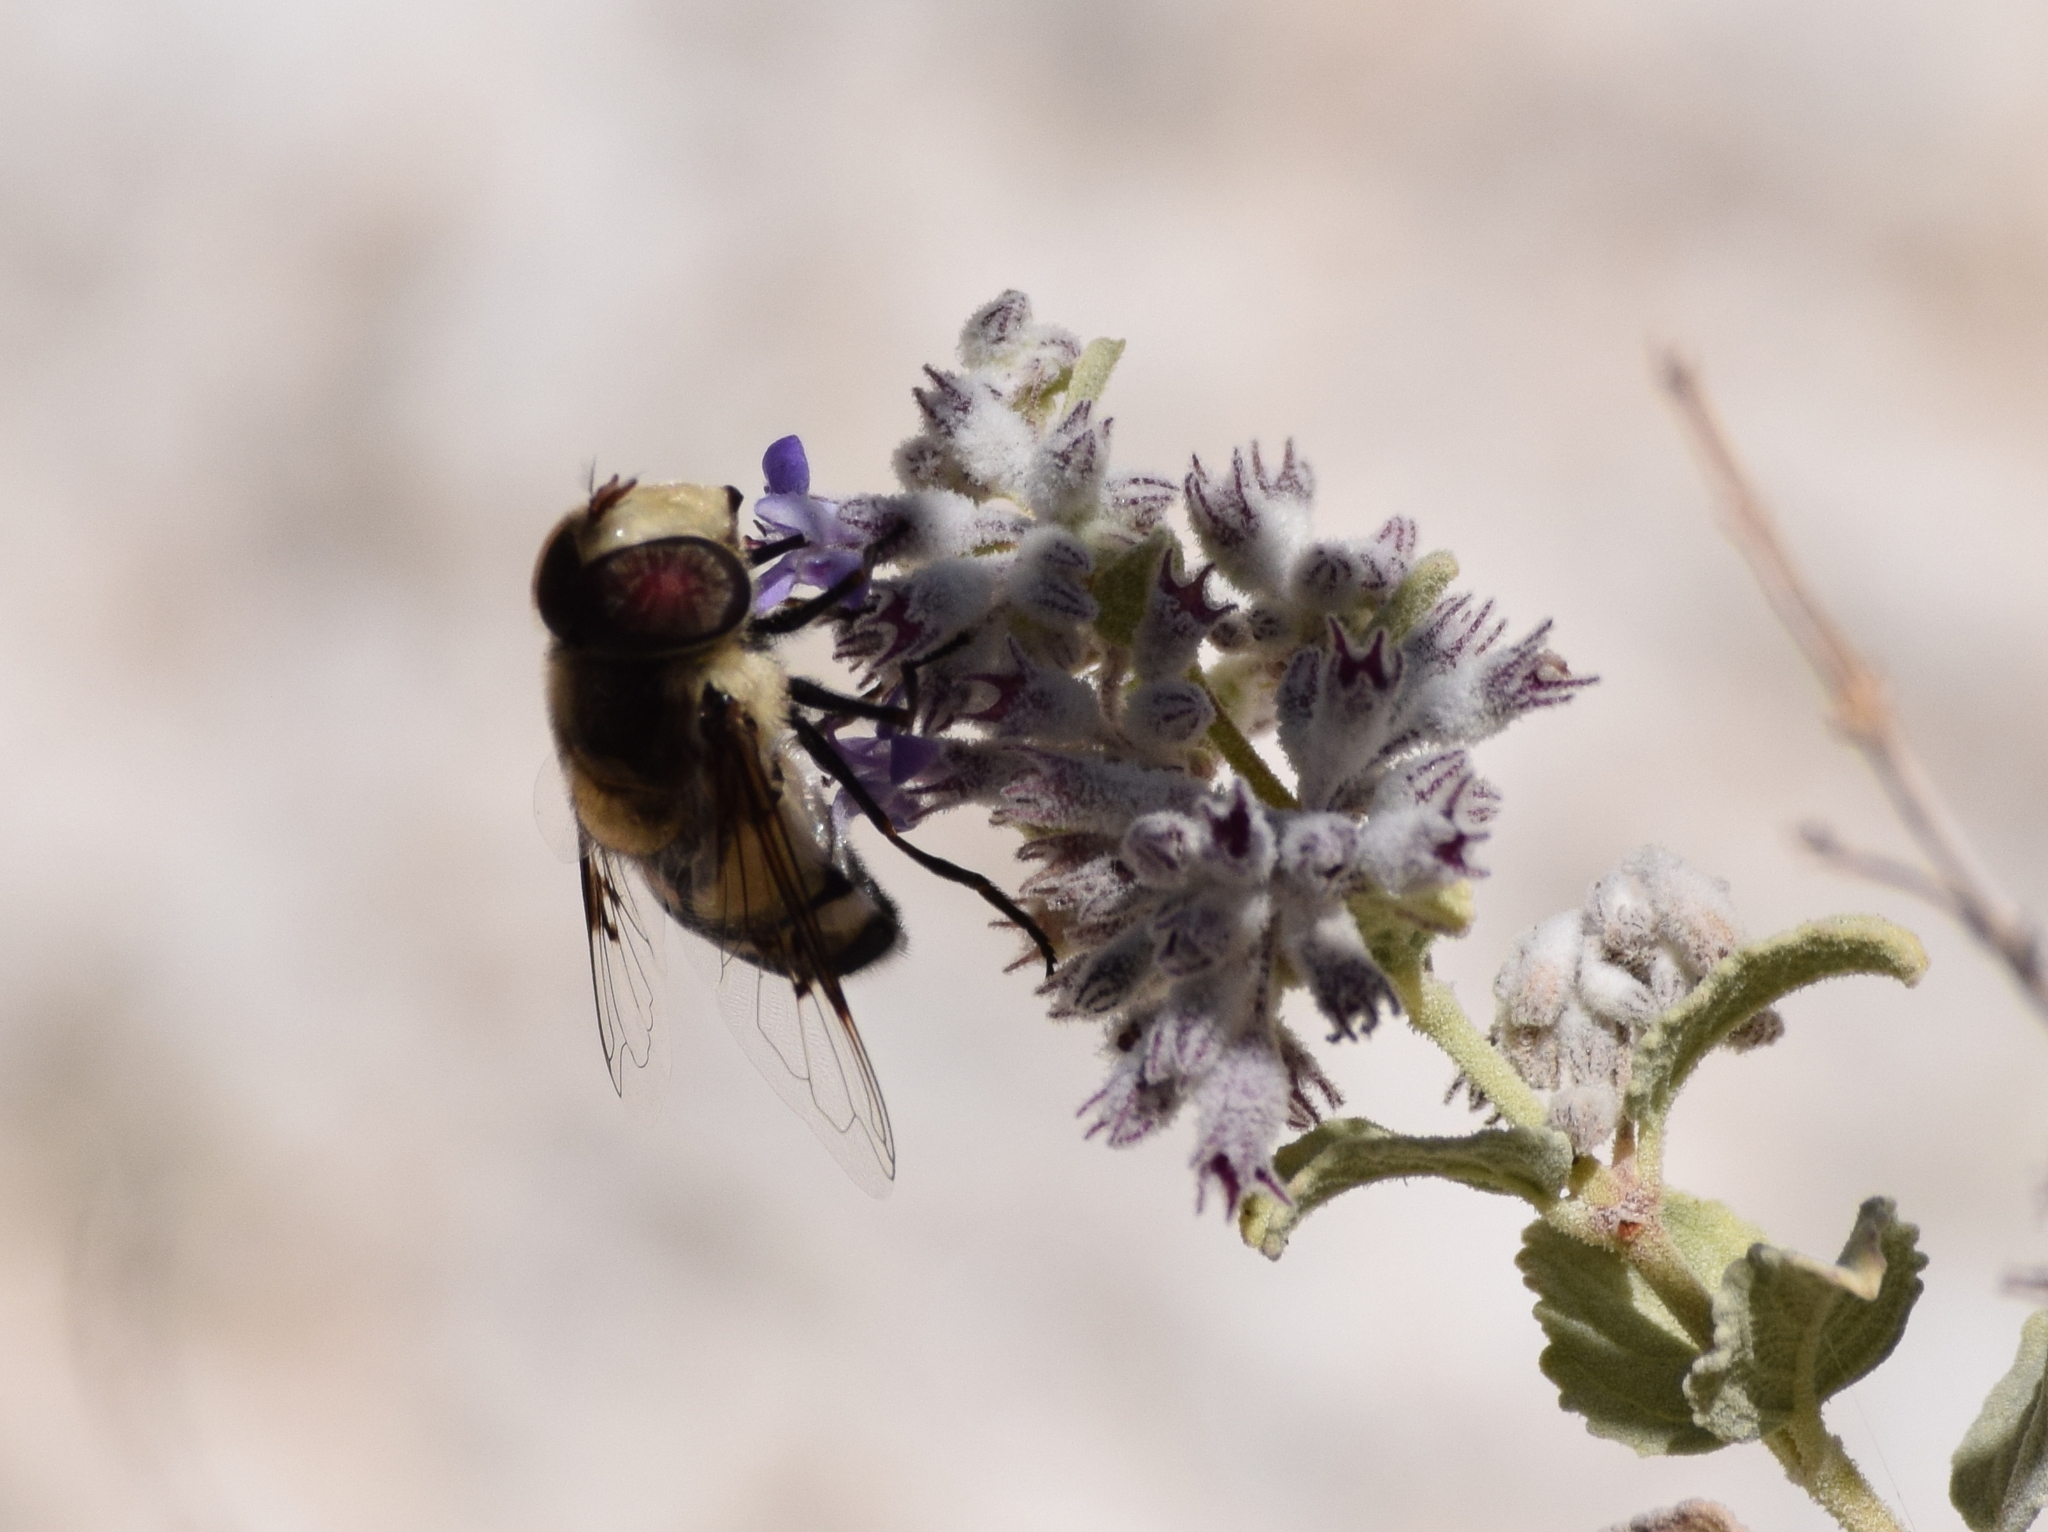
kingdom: Animalia
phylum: Arthropoda
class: Insecta
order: Diptera
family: Syrphidae
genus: Copestylum
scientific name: Copestylum apiciferum
